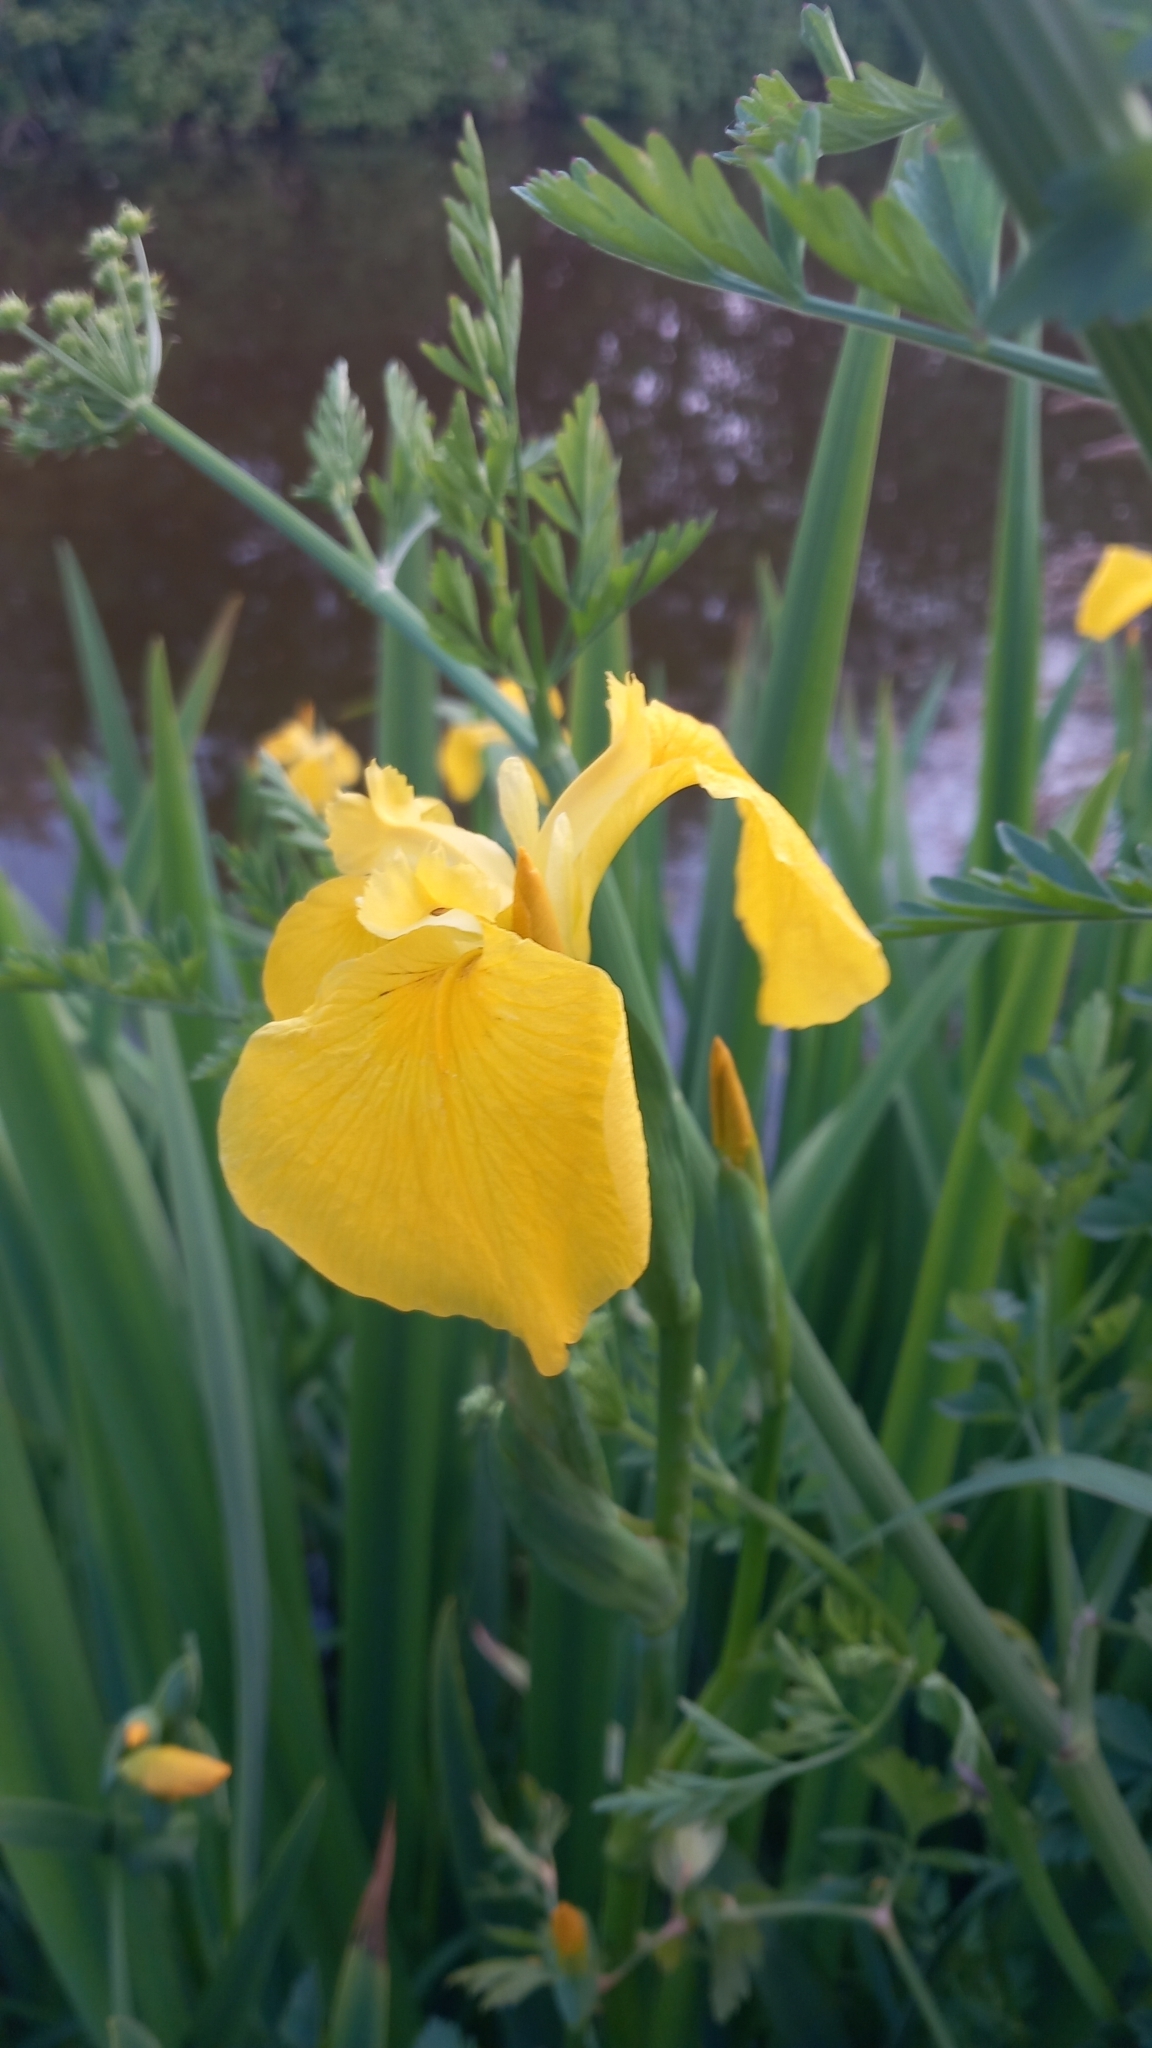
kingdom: Plantae
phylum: Tracheophyta
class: Liliopsida
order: Asparagales
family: Iridaceae
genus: Iris
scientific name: Iris pseudacorus
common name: Yellow flag
